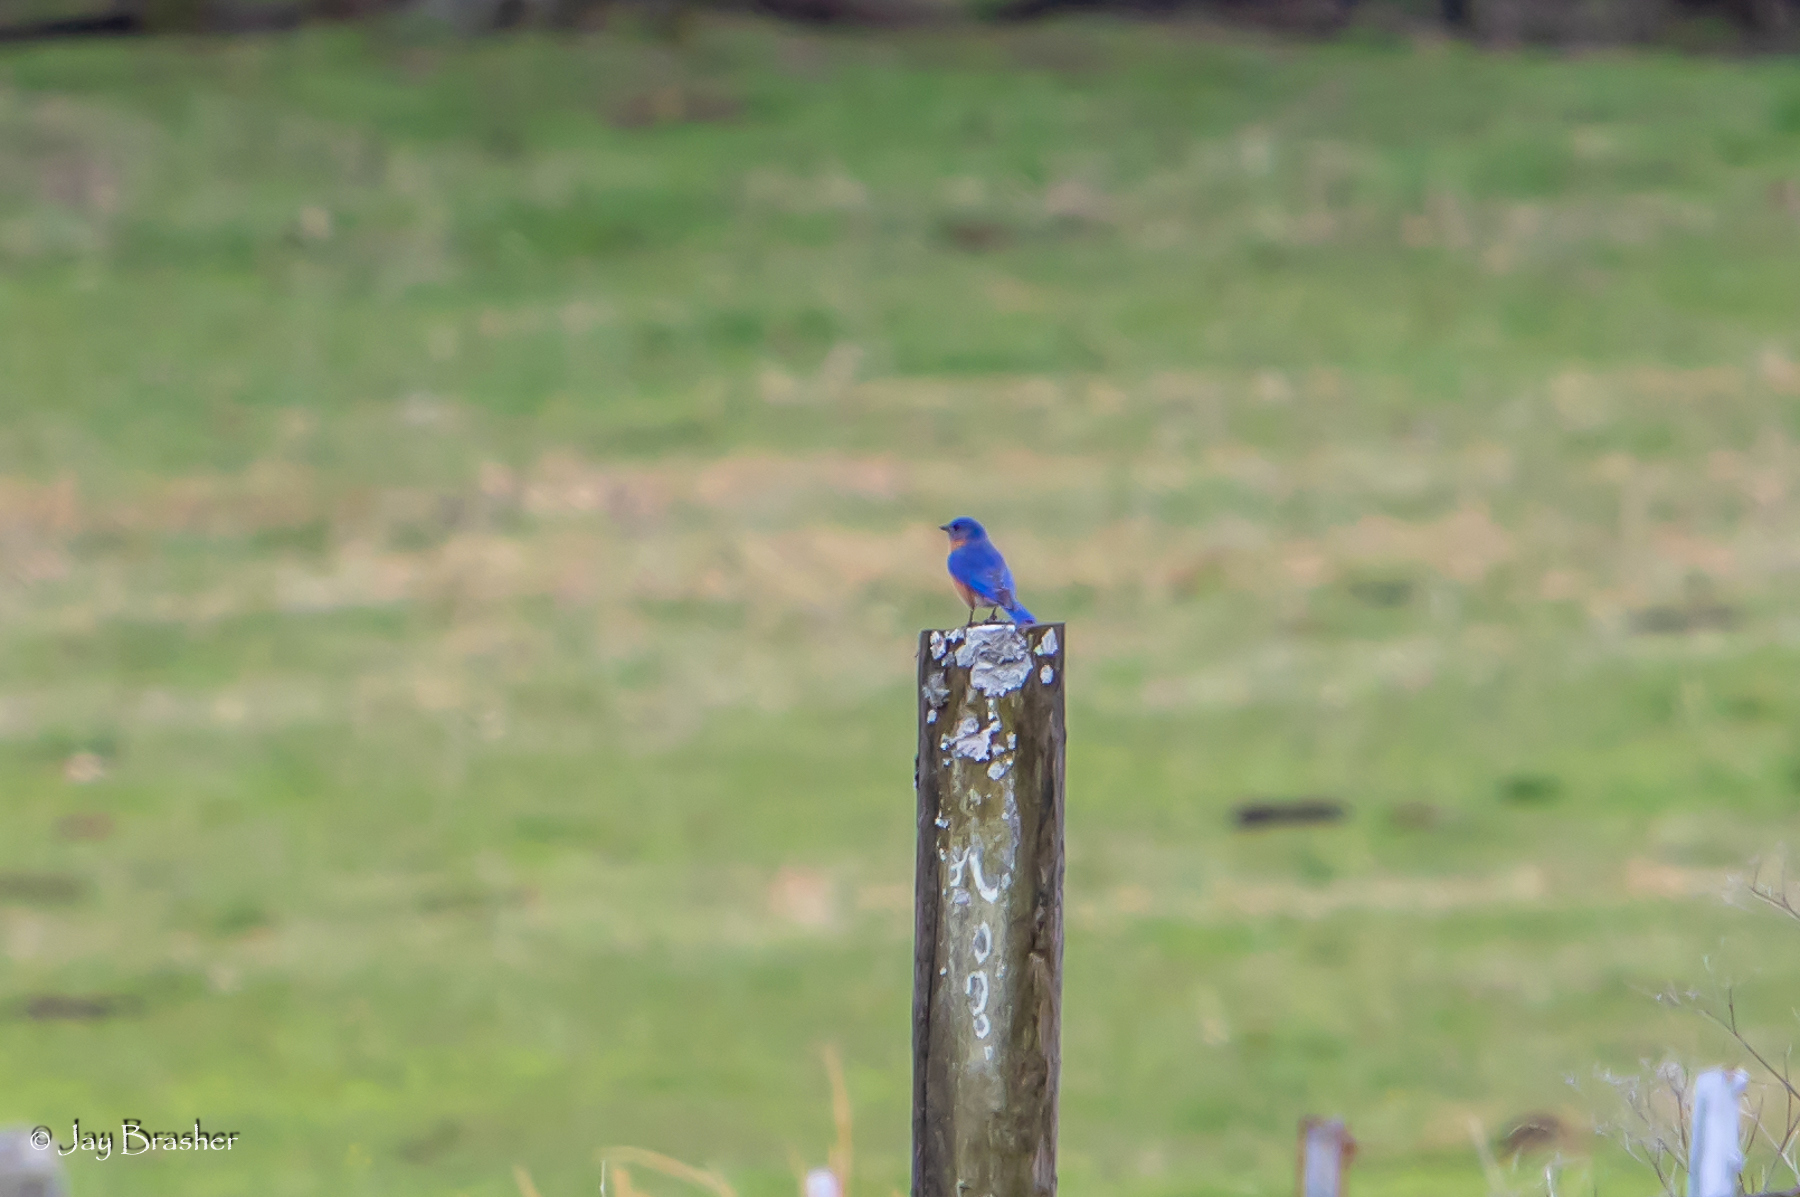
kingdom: Animalia
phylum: Chordata
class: Aves
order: Passeriformes
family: Turdidae
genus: Sialia
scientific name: Sialia sialis
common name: Eastern bluebird
